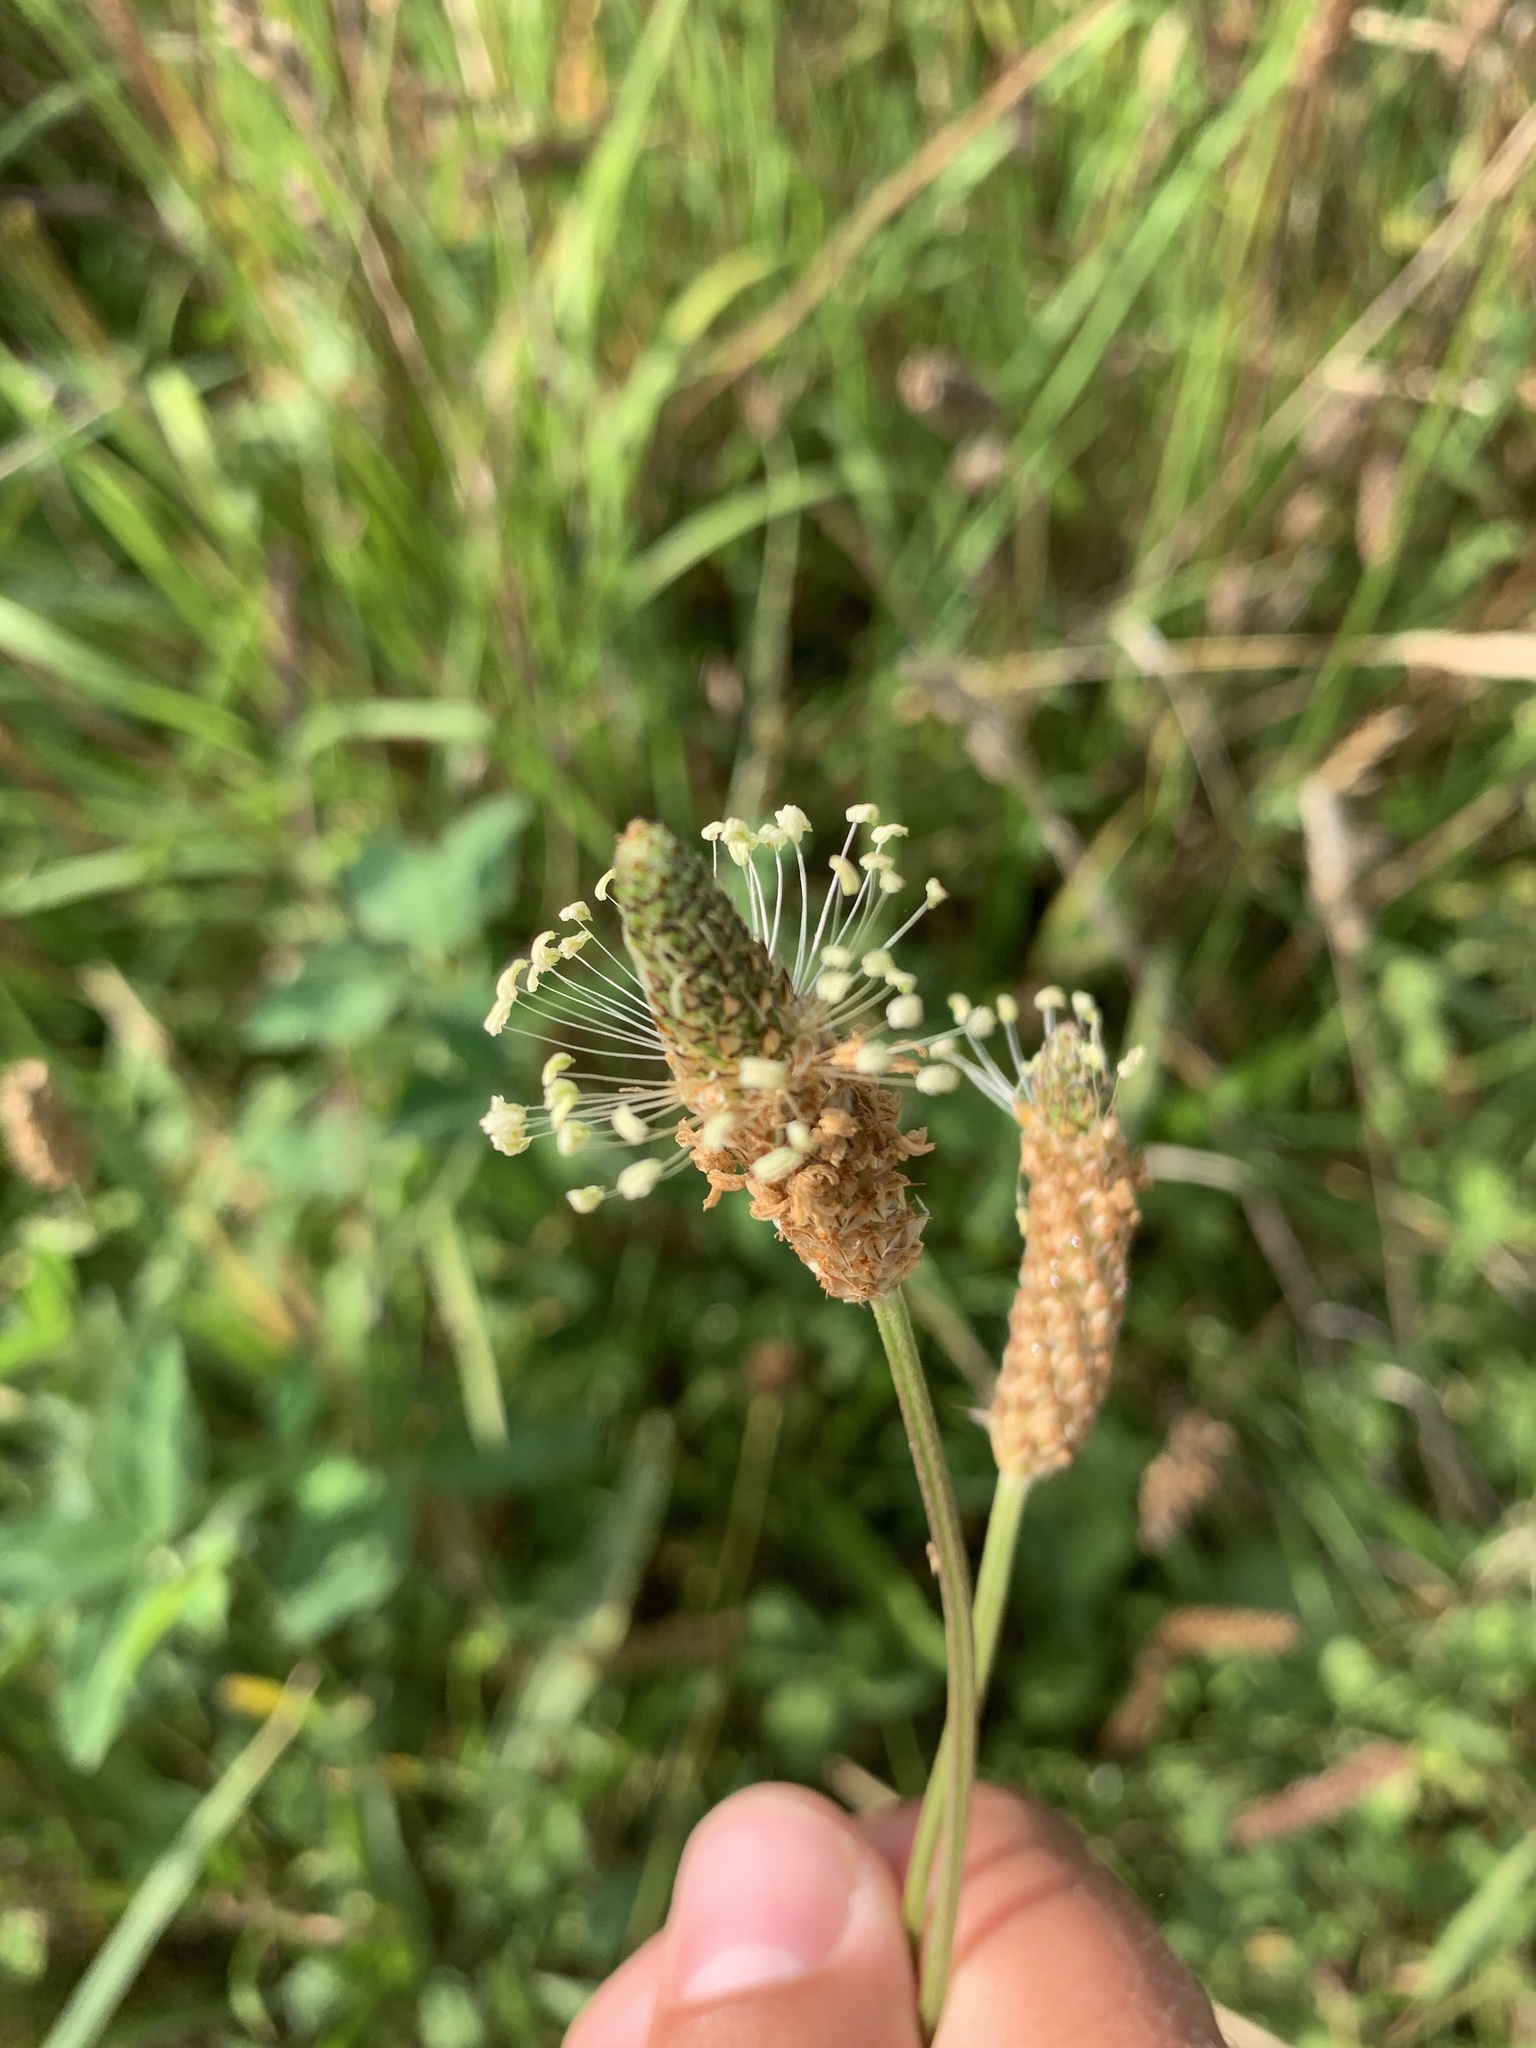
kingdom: Plantae
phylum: Tracheophyta
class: Magnoliopsida
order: Lamiales
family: Plantaginaceae
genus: Plantago
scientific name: Plantago lanceolata
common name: Ribwort plantain
